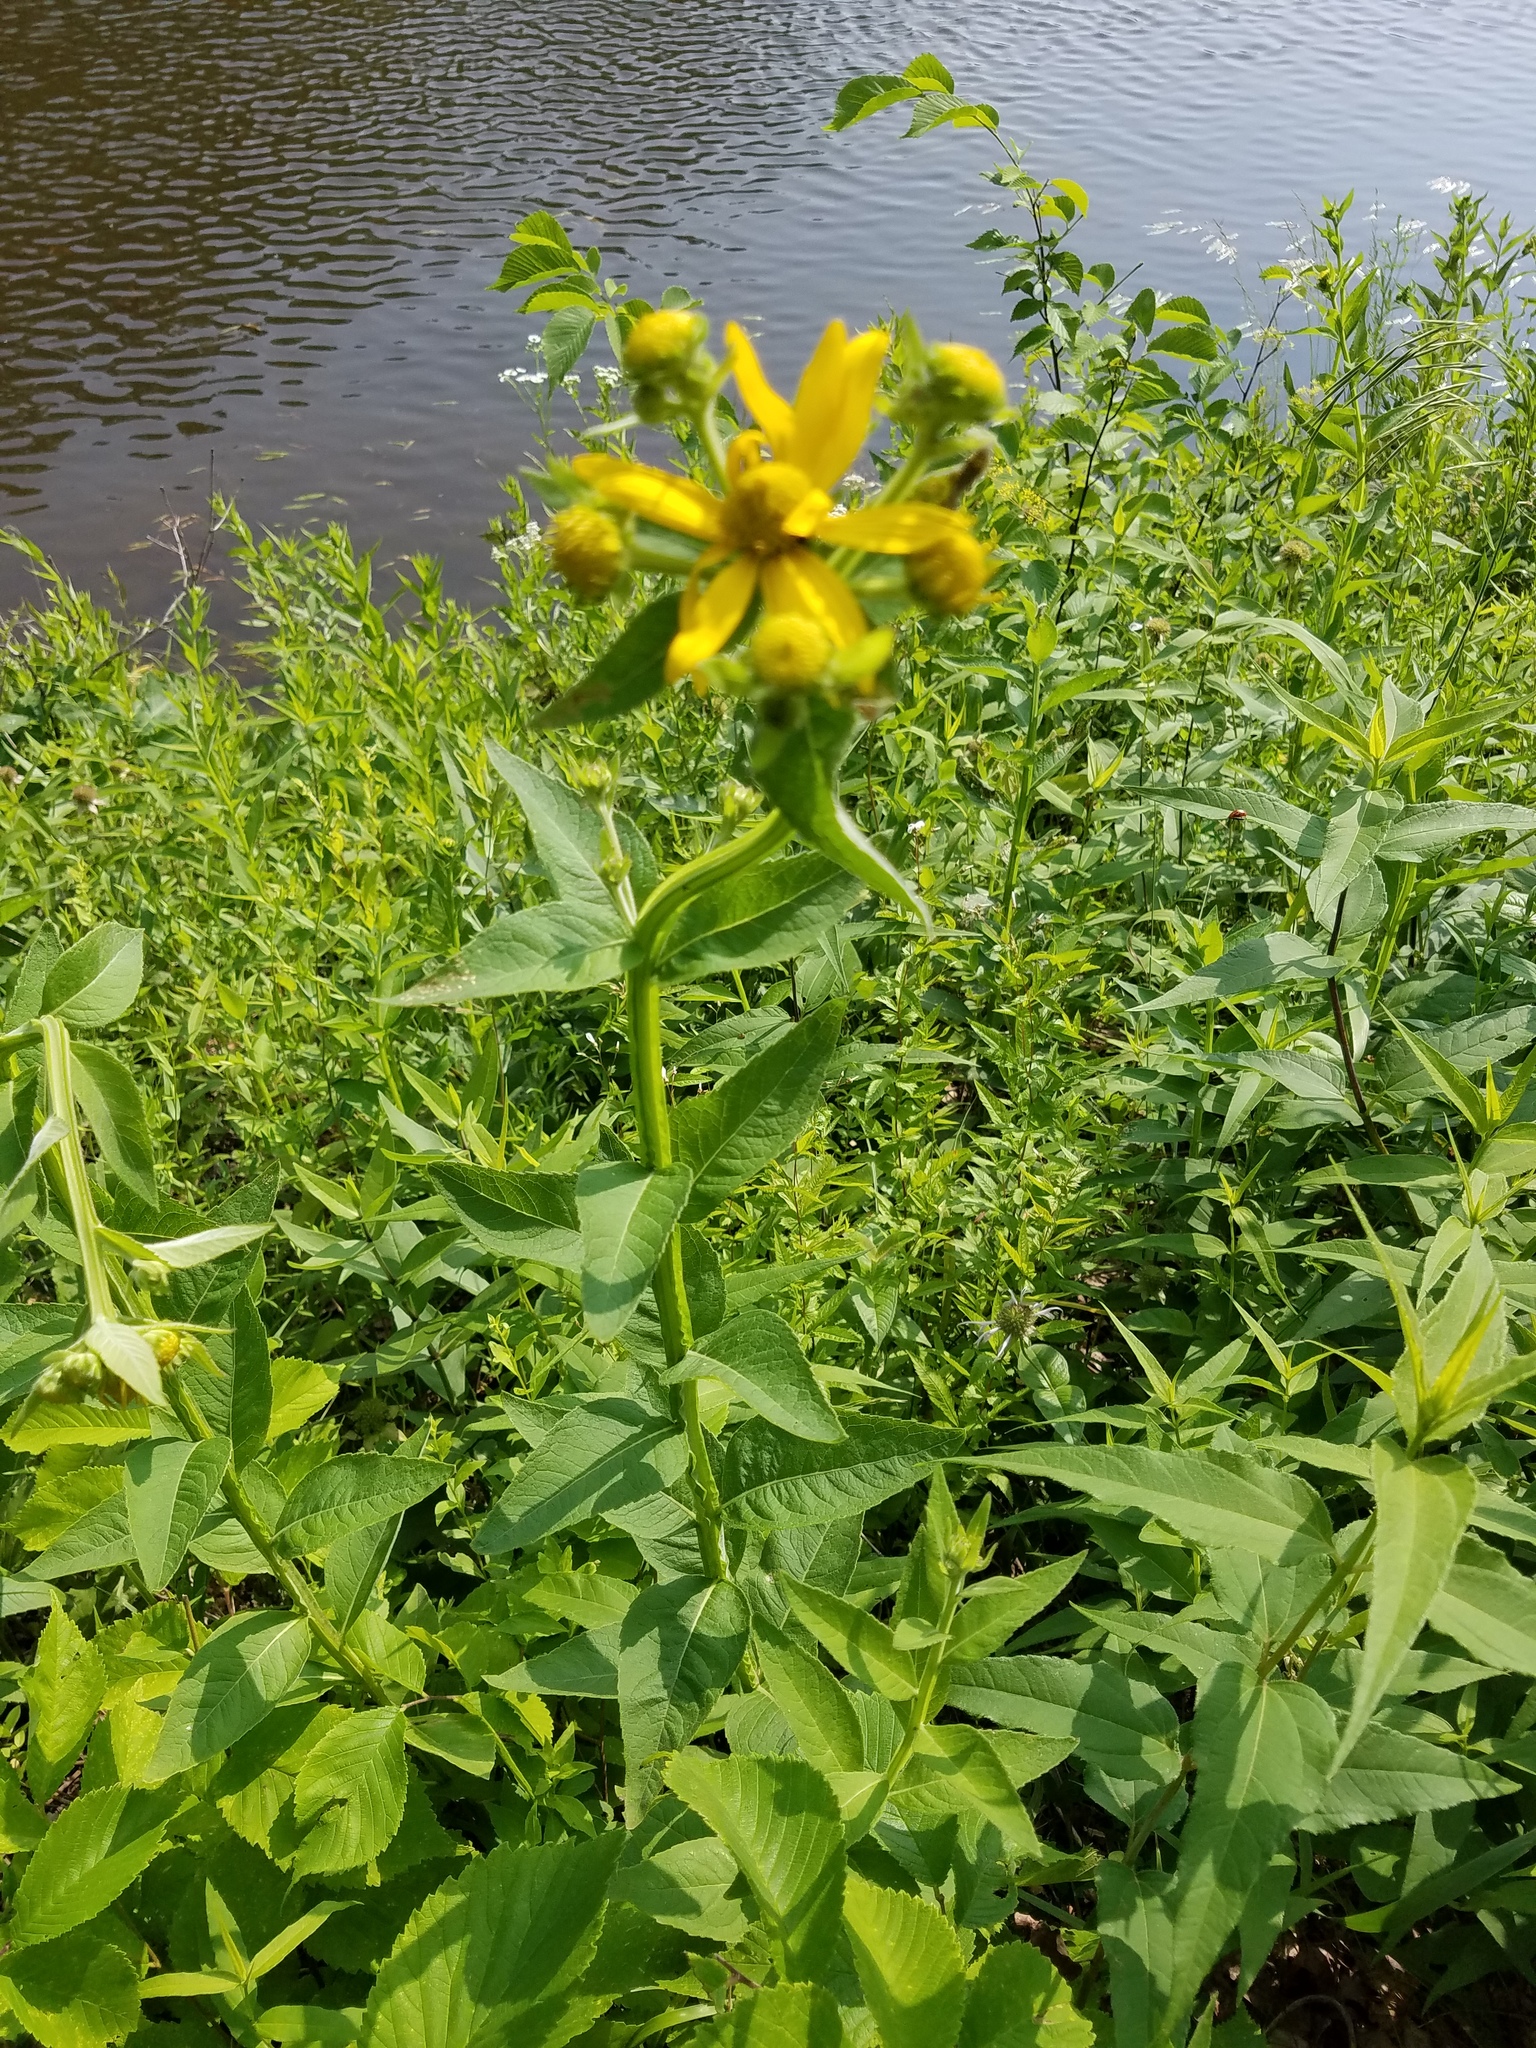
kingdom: Plantae
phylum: Tracheophyta
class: Magnoliopsida
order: Asterales
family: Asteraceae
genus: Verbesina
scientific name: Verbesina helianthoides
